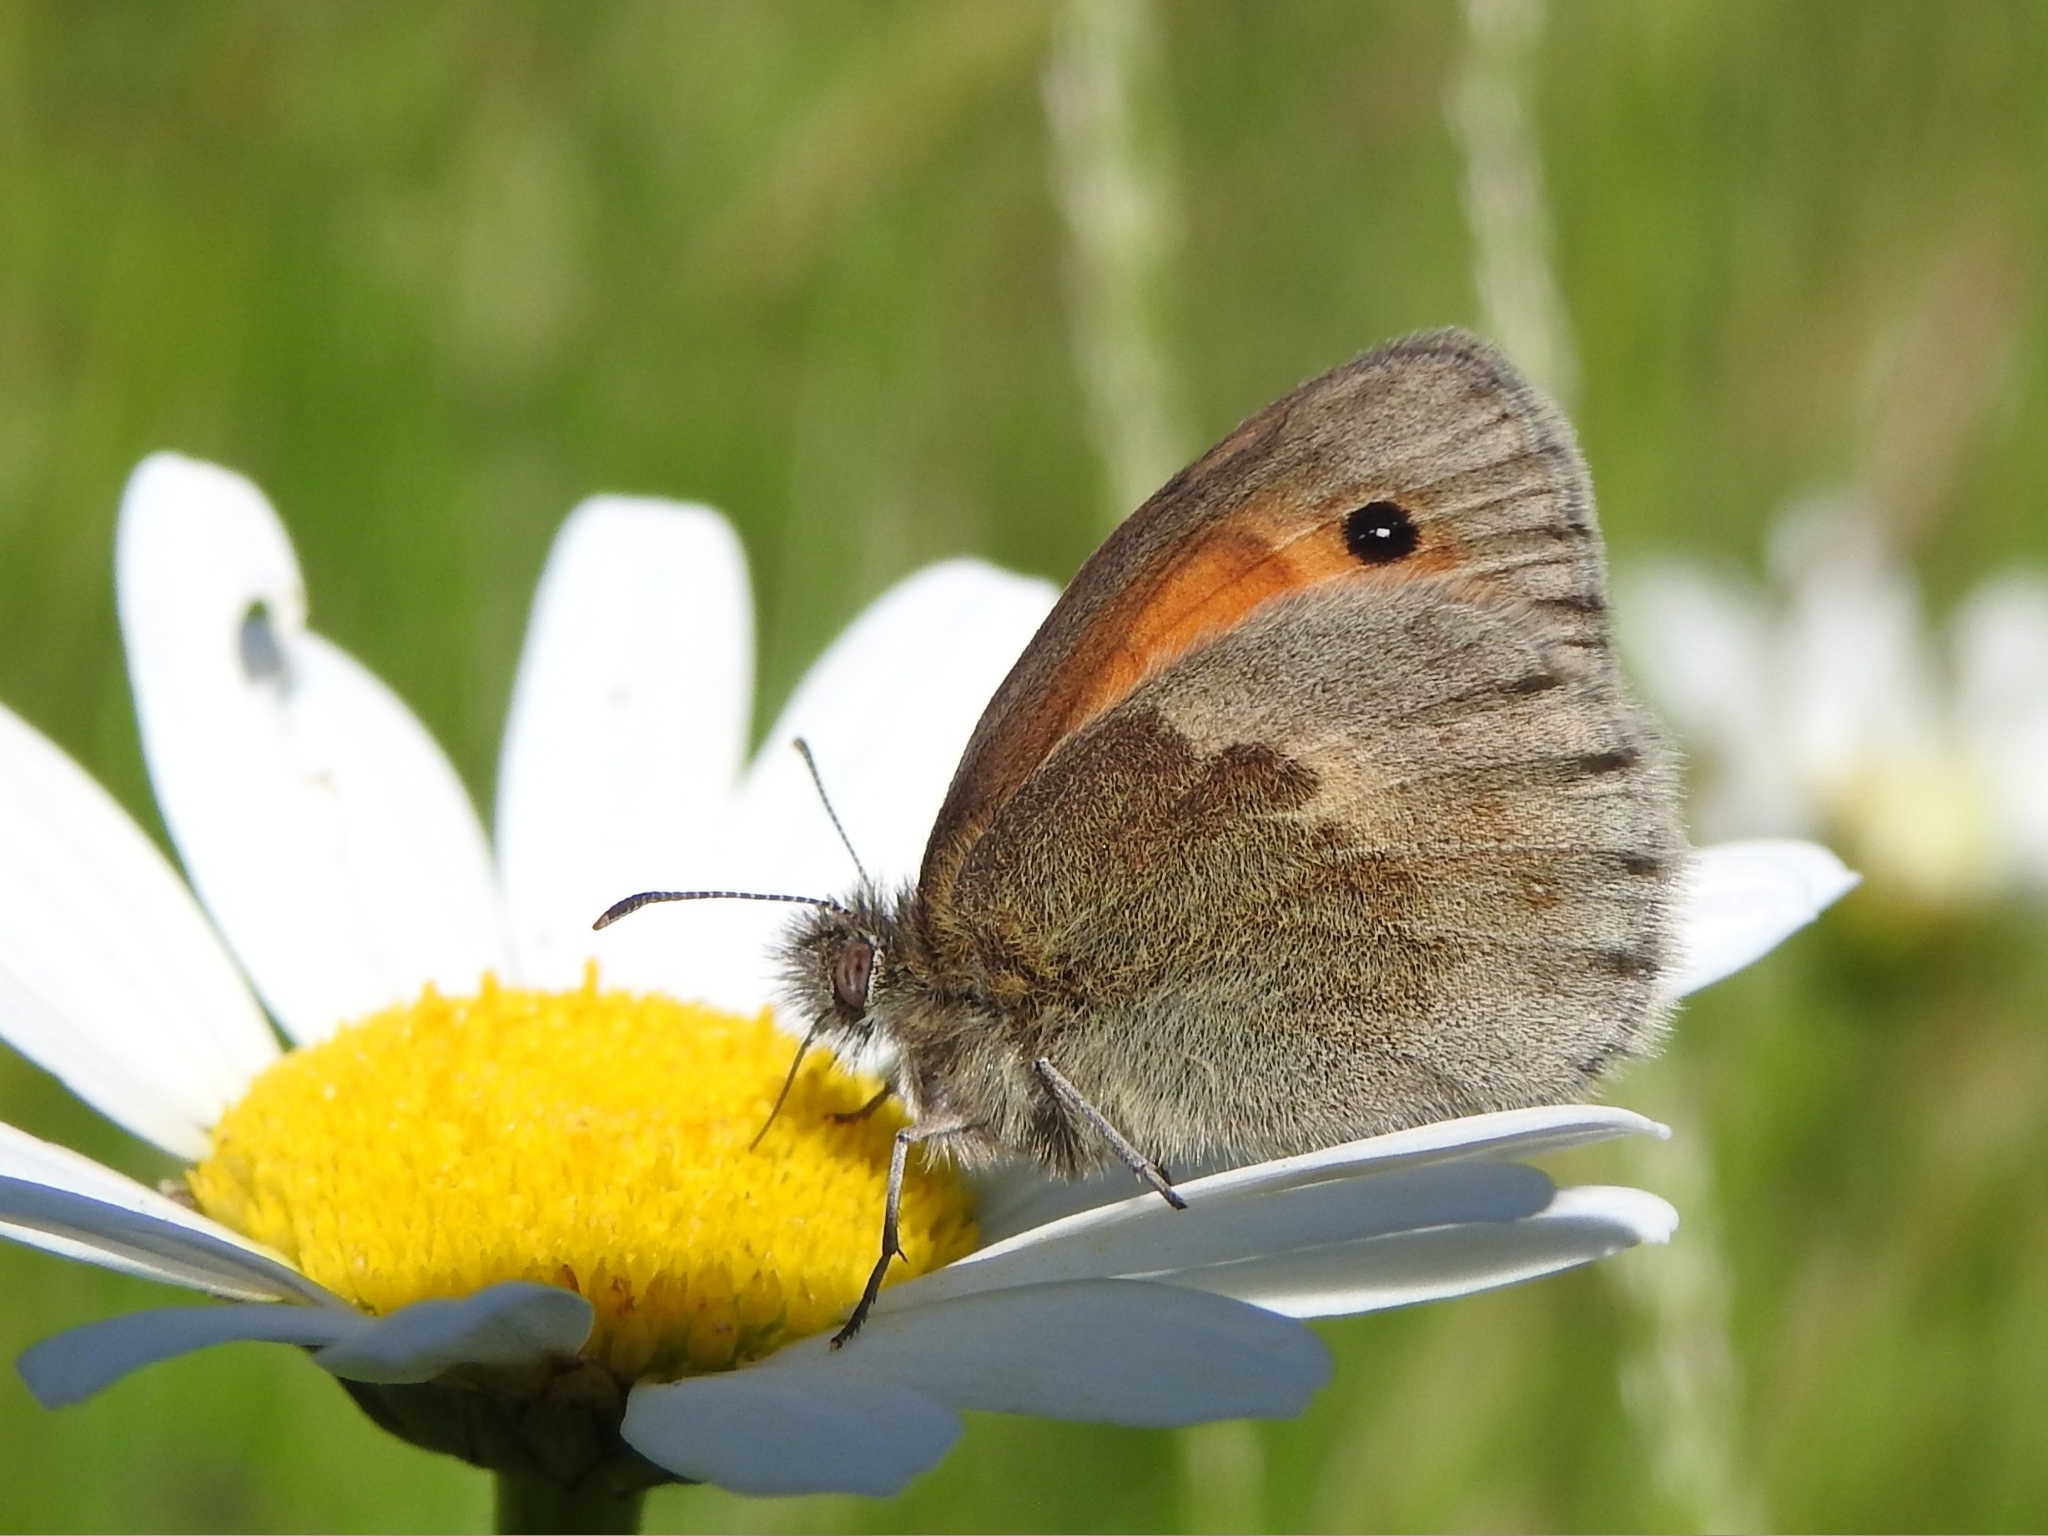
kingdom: Animalia
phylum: Arthropoda
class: Insecta
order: Lepidoptera
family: Nymphalidae
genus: Coenonympha
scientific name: Coenonympha pamphilus
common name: Small heath
